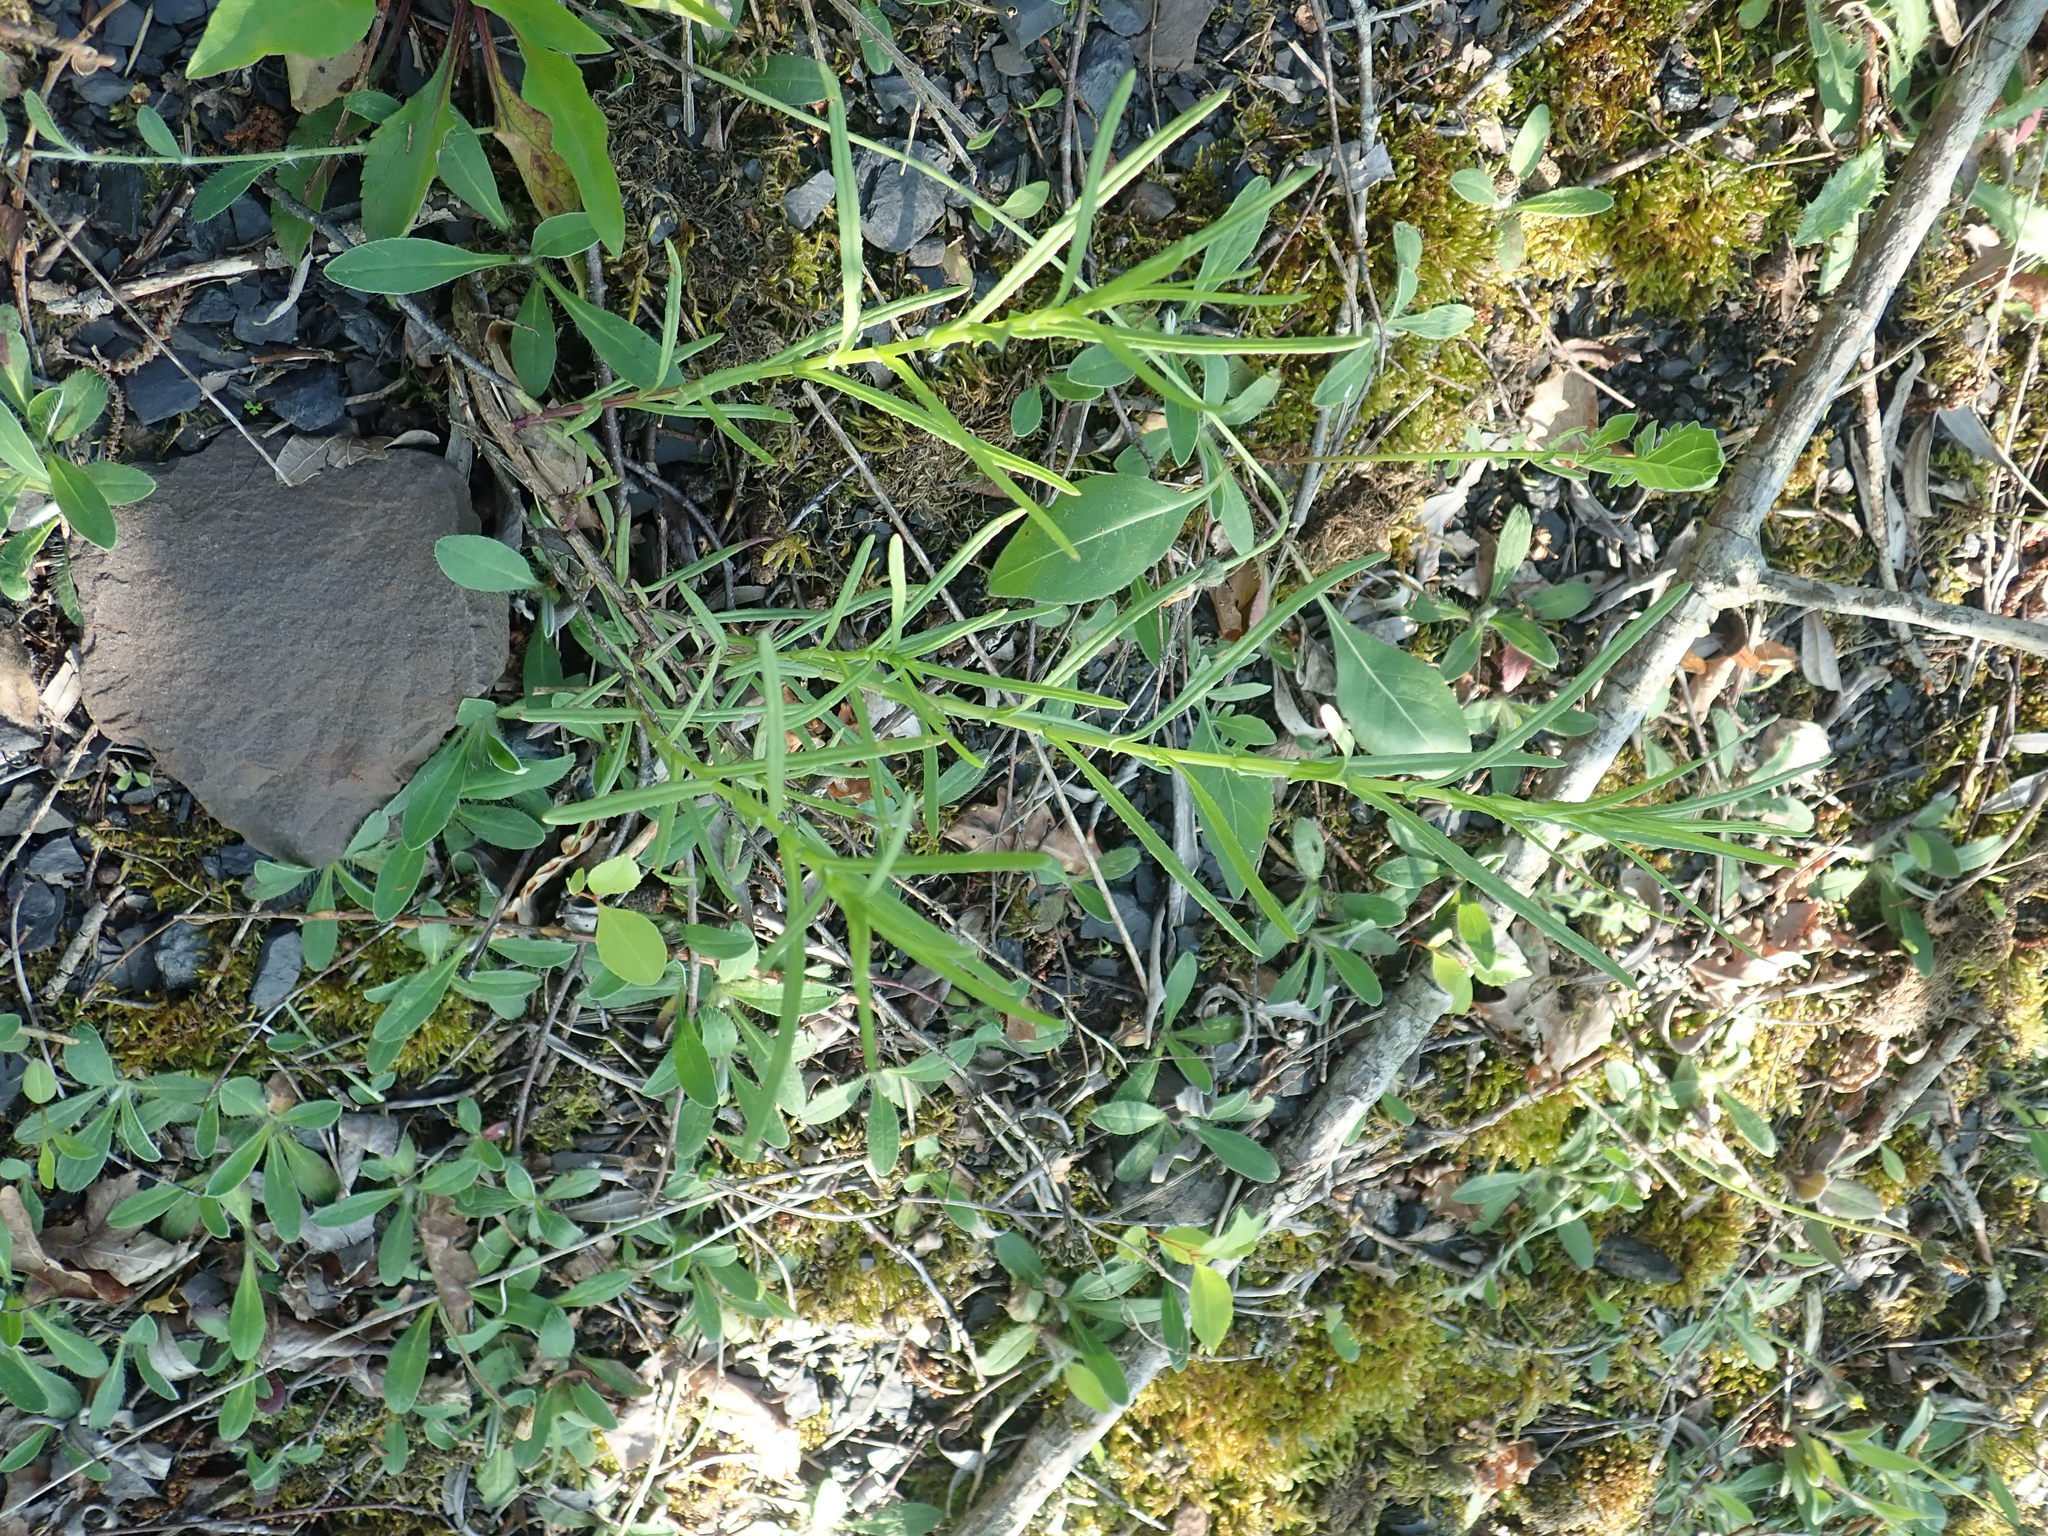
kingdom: Plantae
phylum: Tracheophyta
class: Magnoliopsida
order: Asterales
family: Asteraceae
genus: Senecio
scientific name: Senecio inaequidens
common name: Narrow-leaved ragwort
